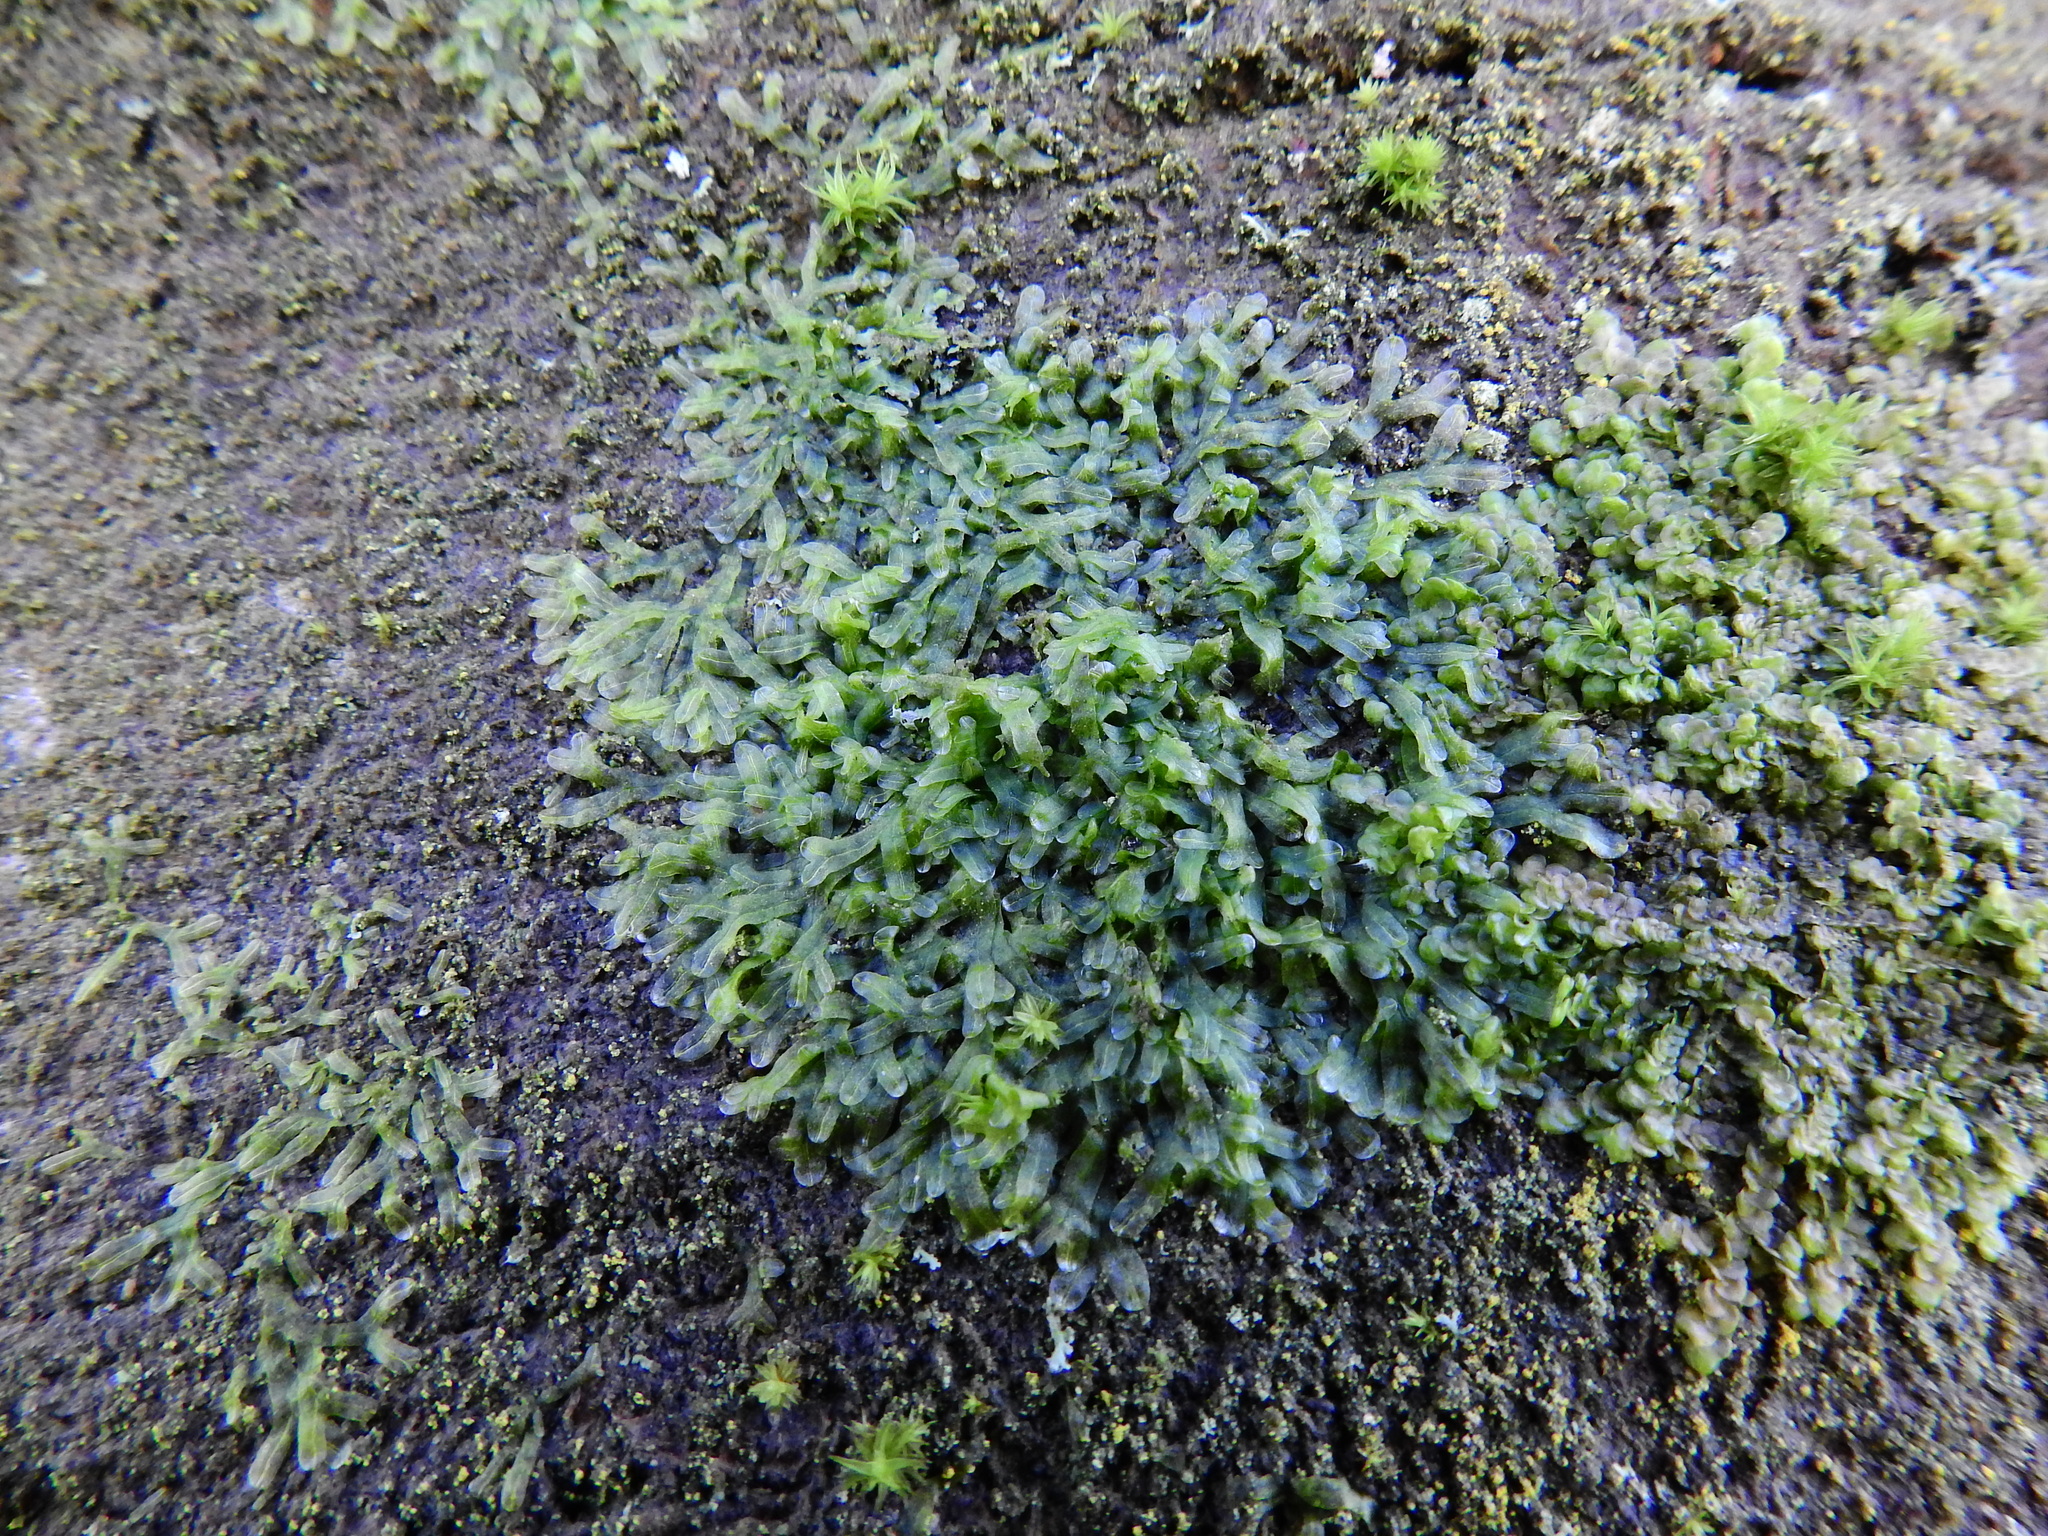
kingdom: Plantae
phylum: Marchantiophyta
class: Jungermanniopsida
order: Metzgeriales
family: Metzgeriaceae
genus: Metzgeria
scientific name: Metzgeria furcata
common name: Forked veilwort
